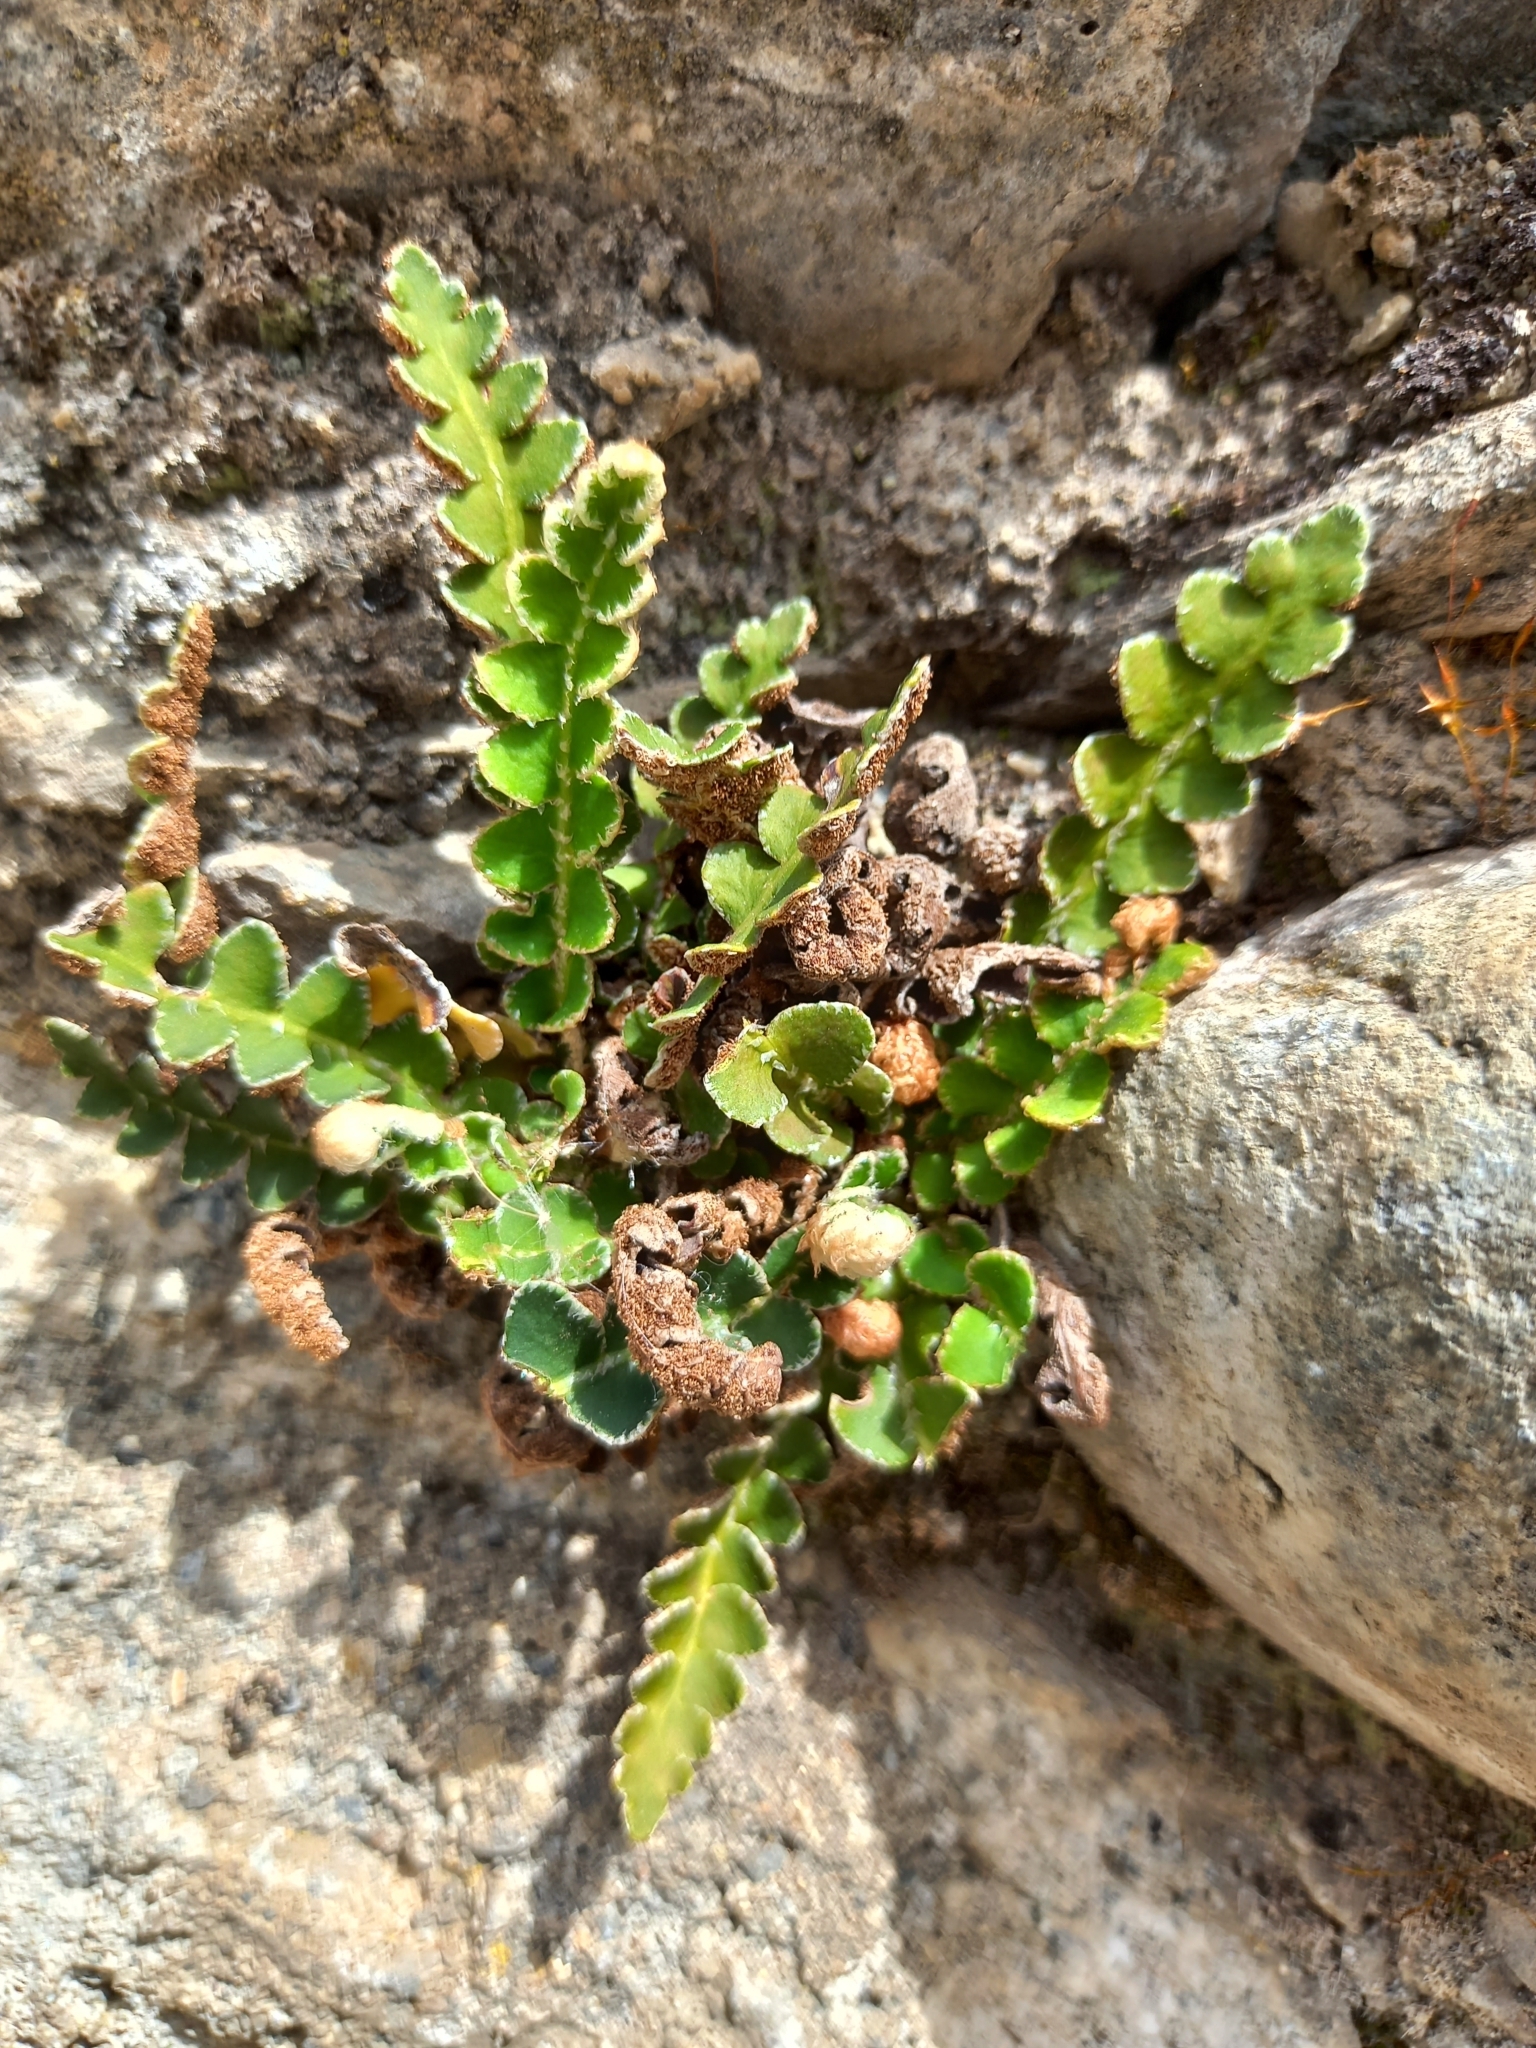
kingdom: Plantae
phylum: Tracheophyta
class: Polypodiopsida
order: Polypodiales
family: Aspleniaceae
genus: Asplenium
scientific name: Asplenium ceterach
